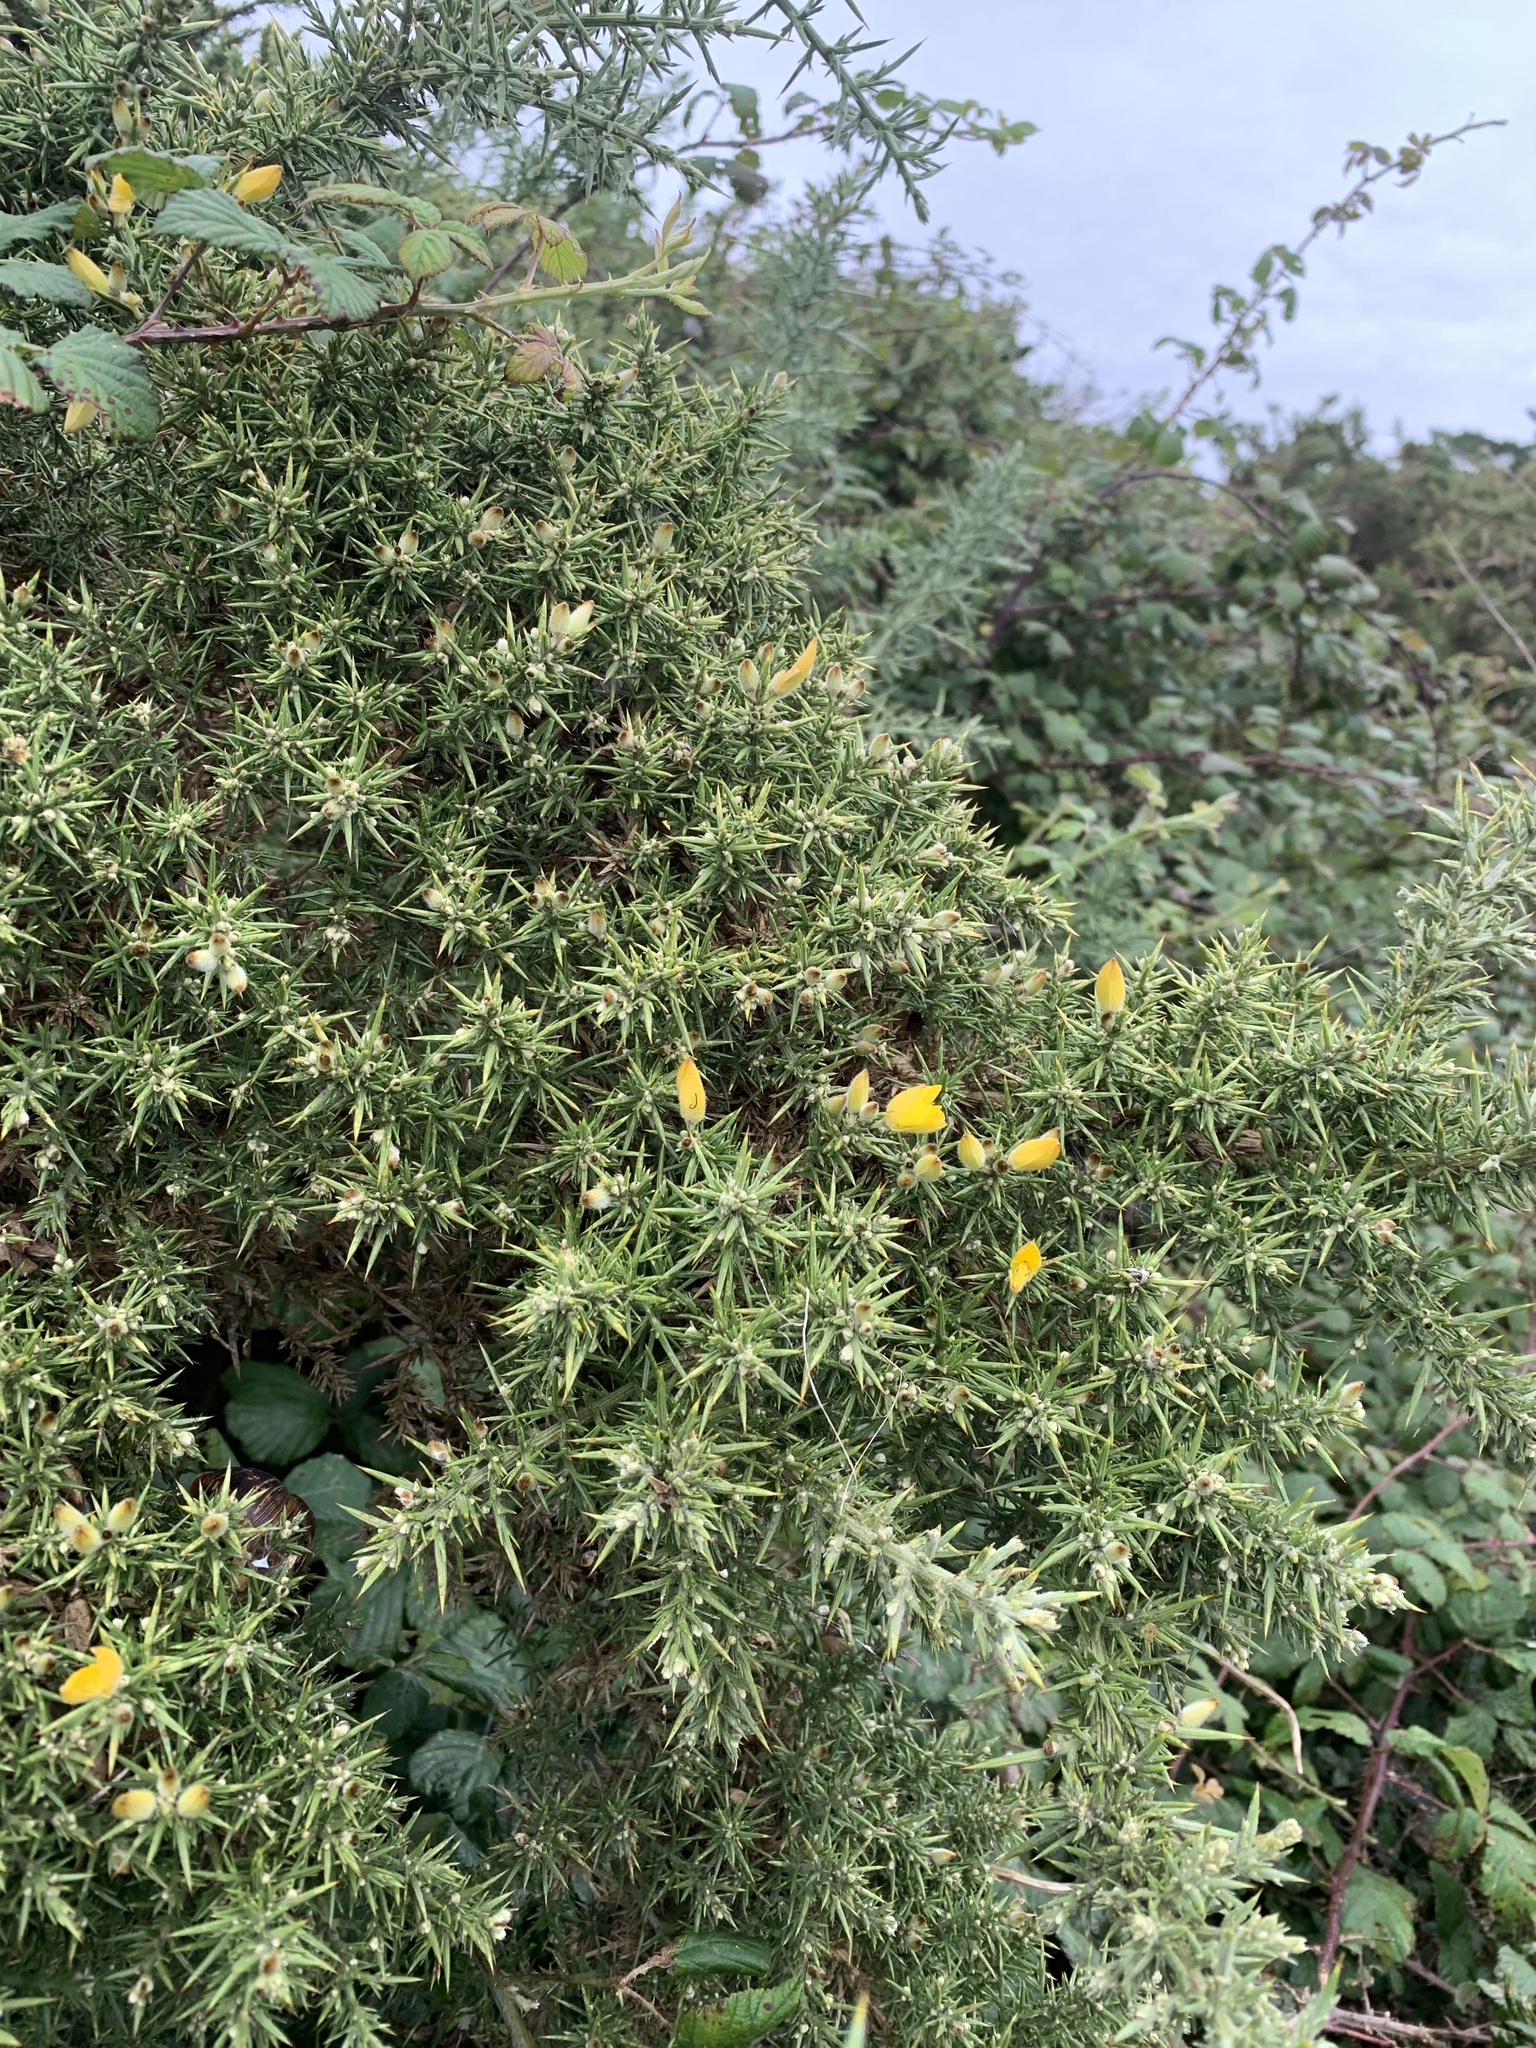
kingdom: Plantae
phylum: Tracheophyta
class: Magnoliopsida
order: Fabales
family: Fabaceae
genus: Ulex
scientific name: Ulex europaeus
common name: Common gorse
